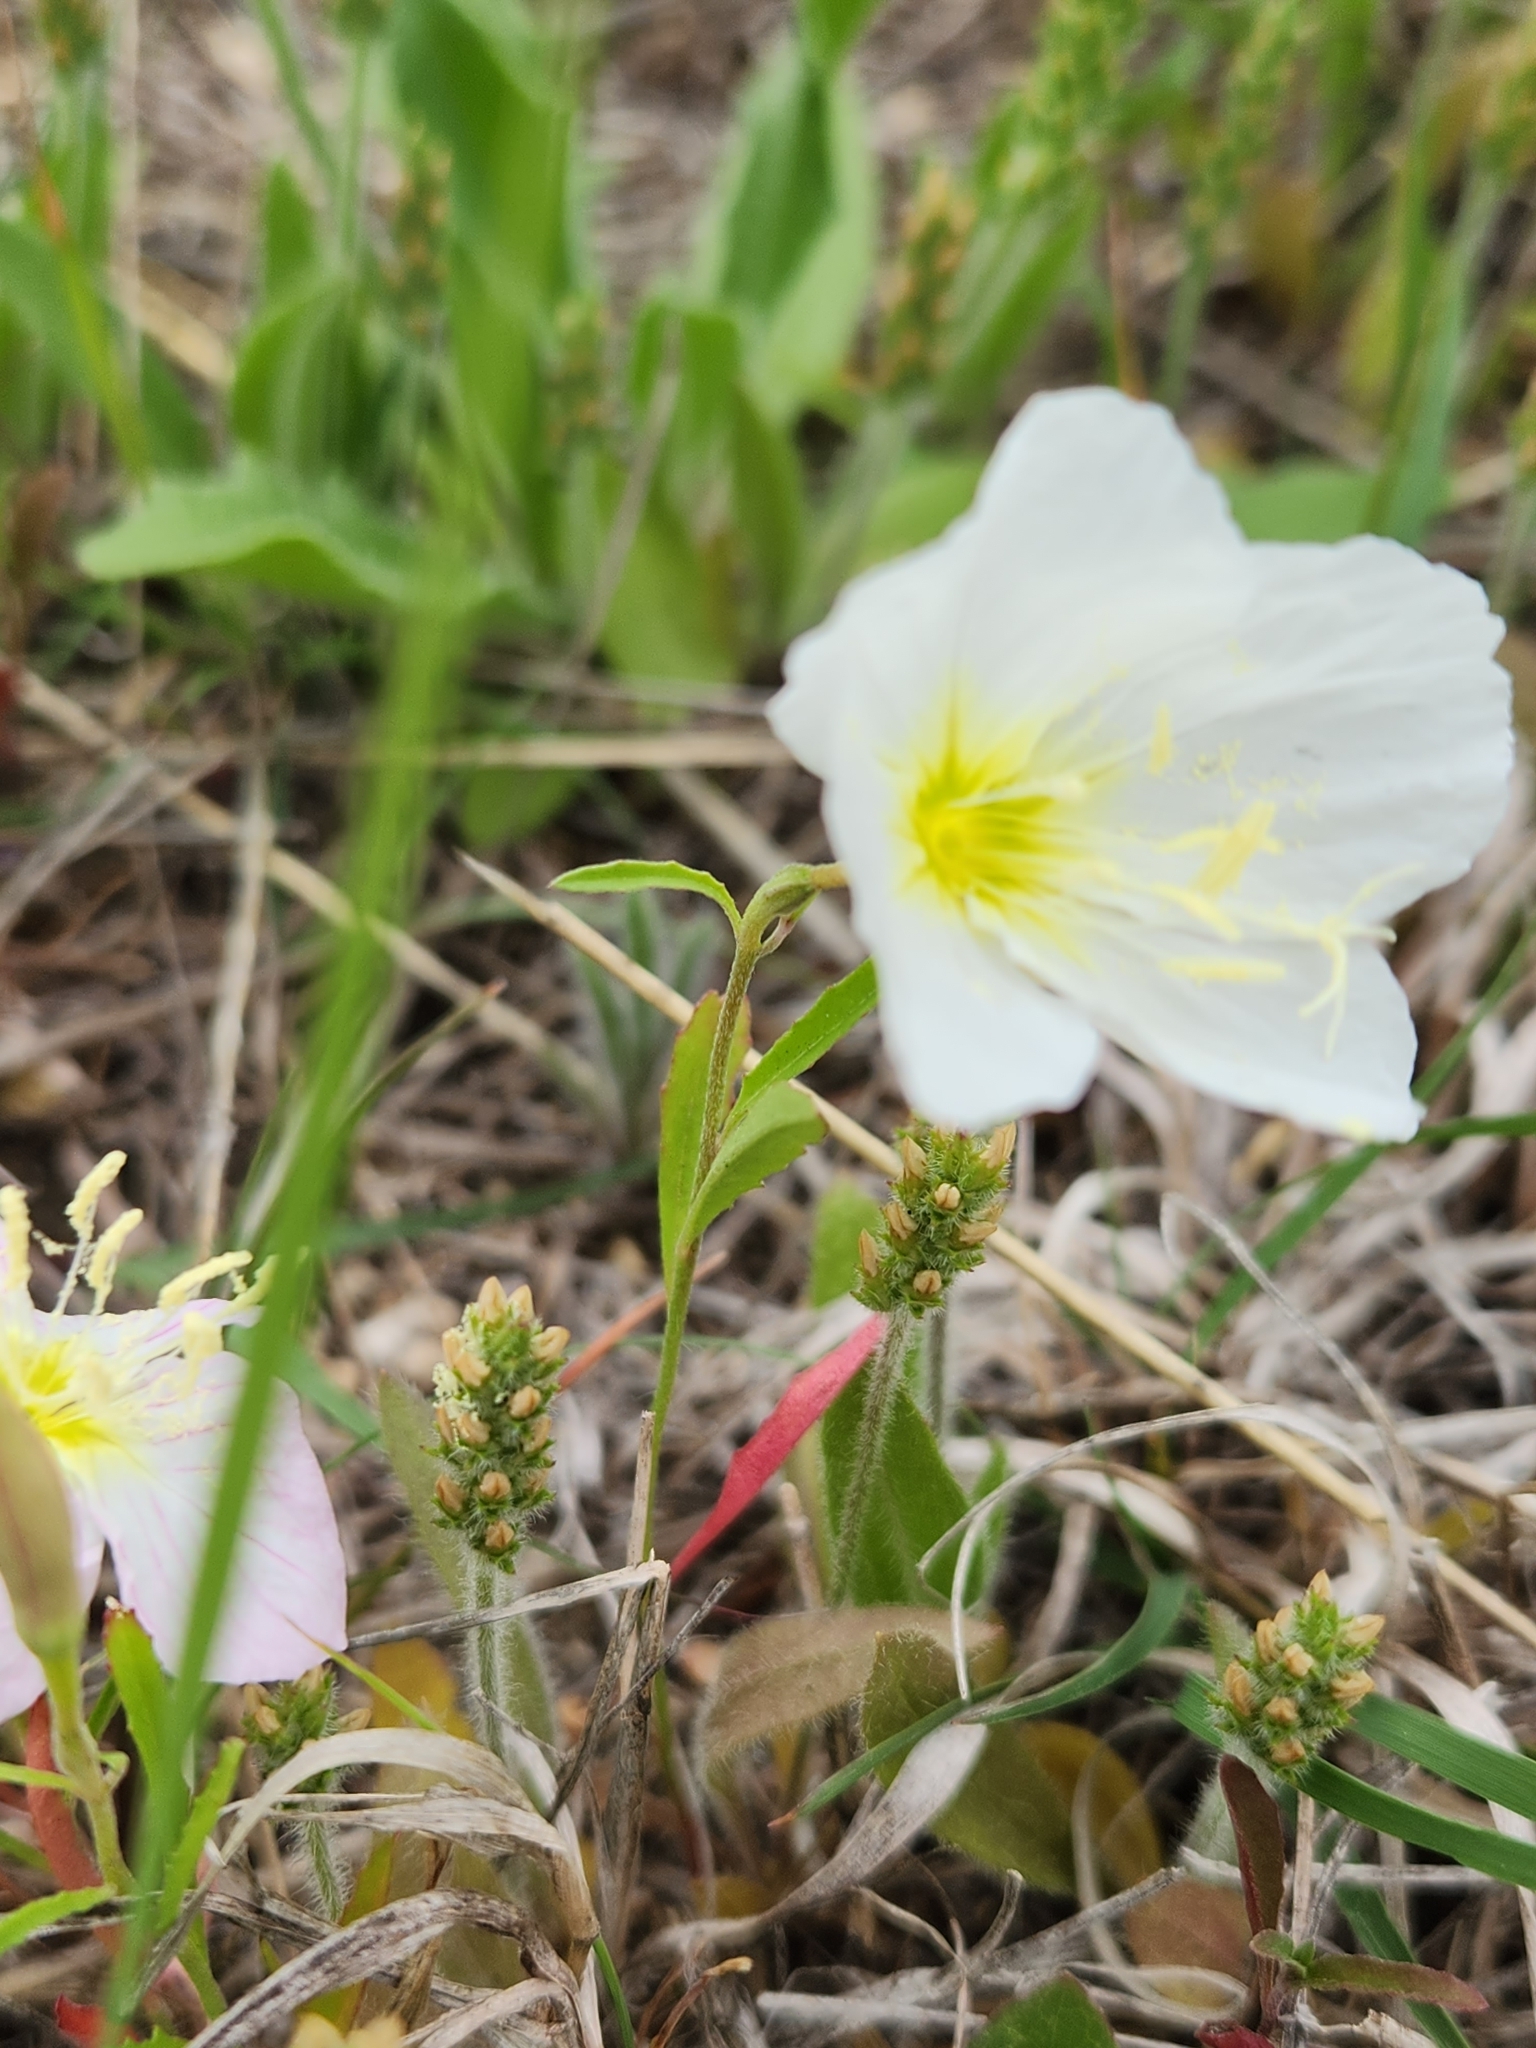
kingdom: Plantae
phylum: Tracheophyta
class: Magnoliopsida
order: Myrtales
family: Onagraceae
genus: Oenothera
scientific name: Oenothera speciosa
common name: White evening-primrose
